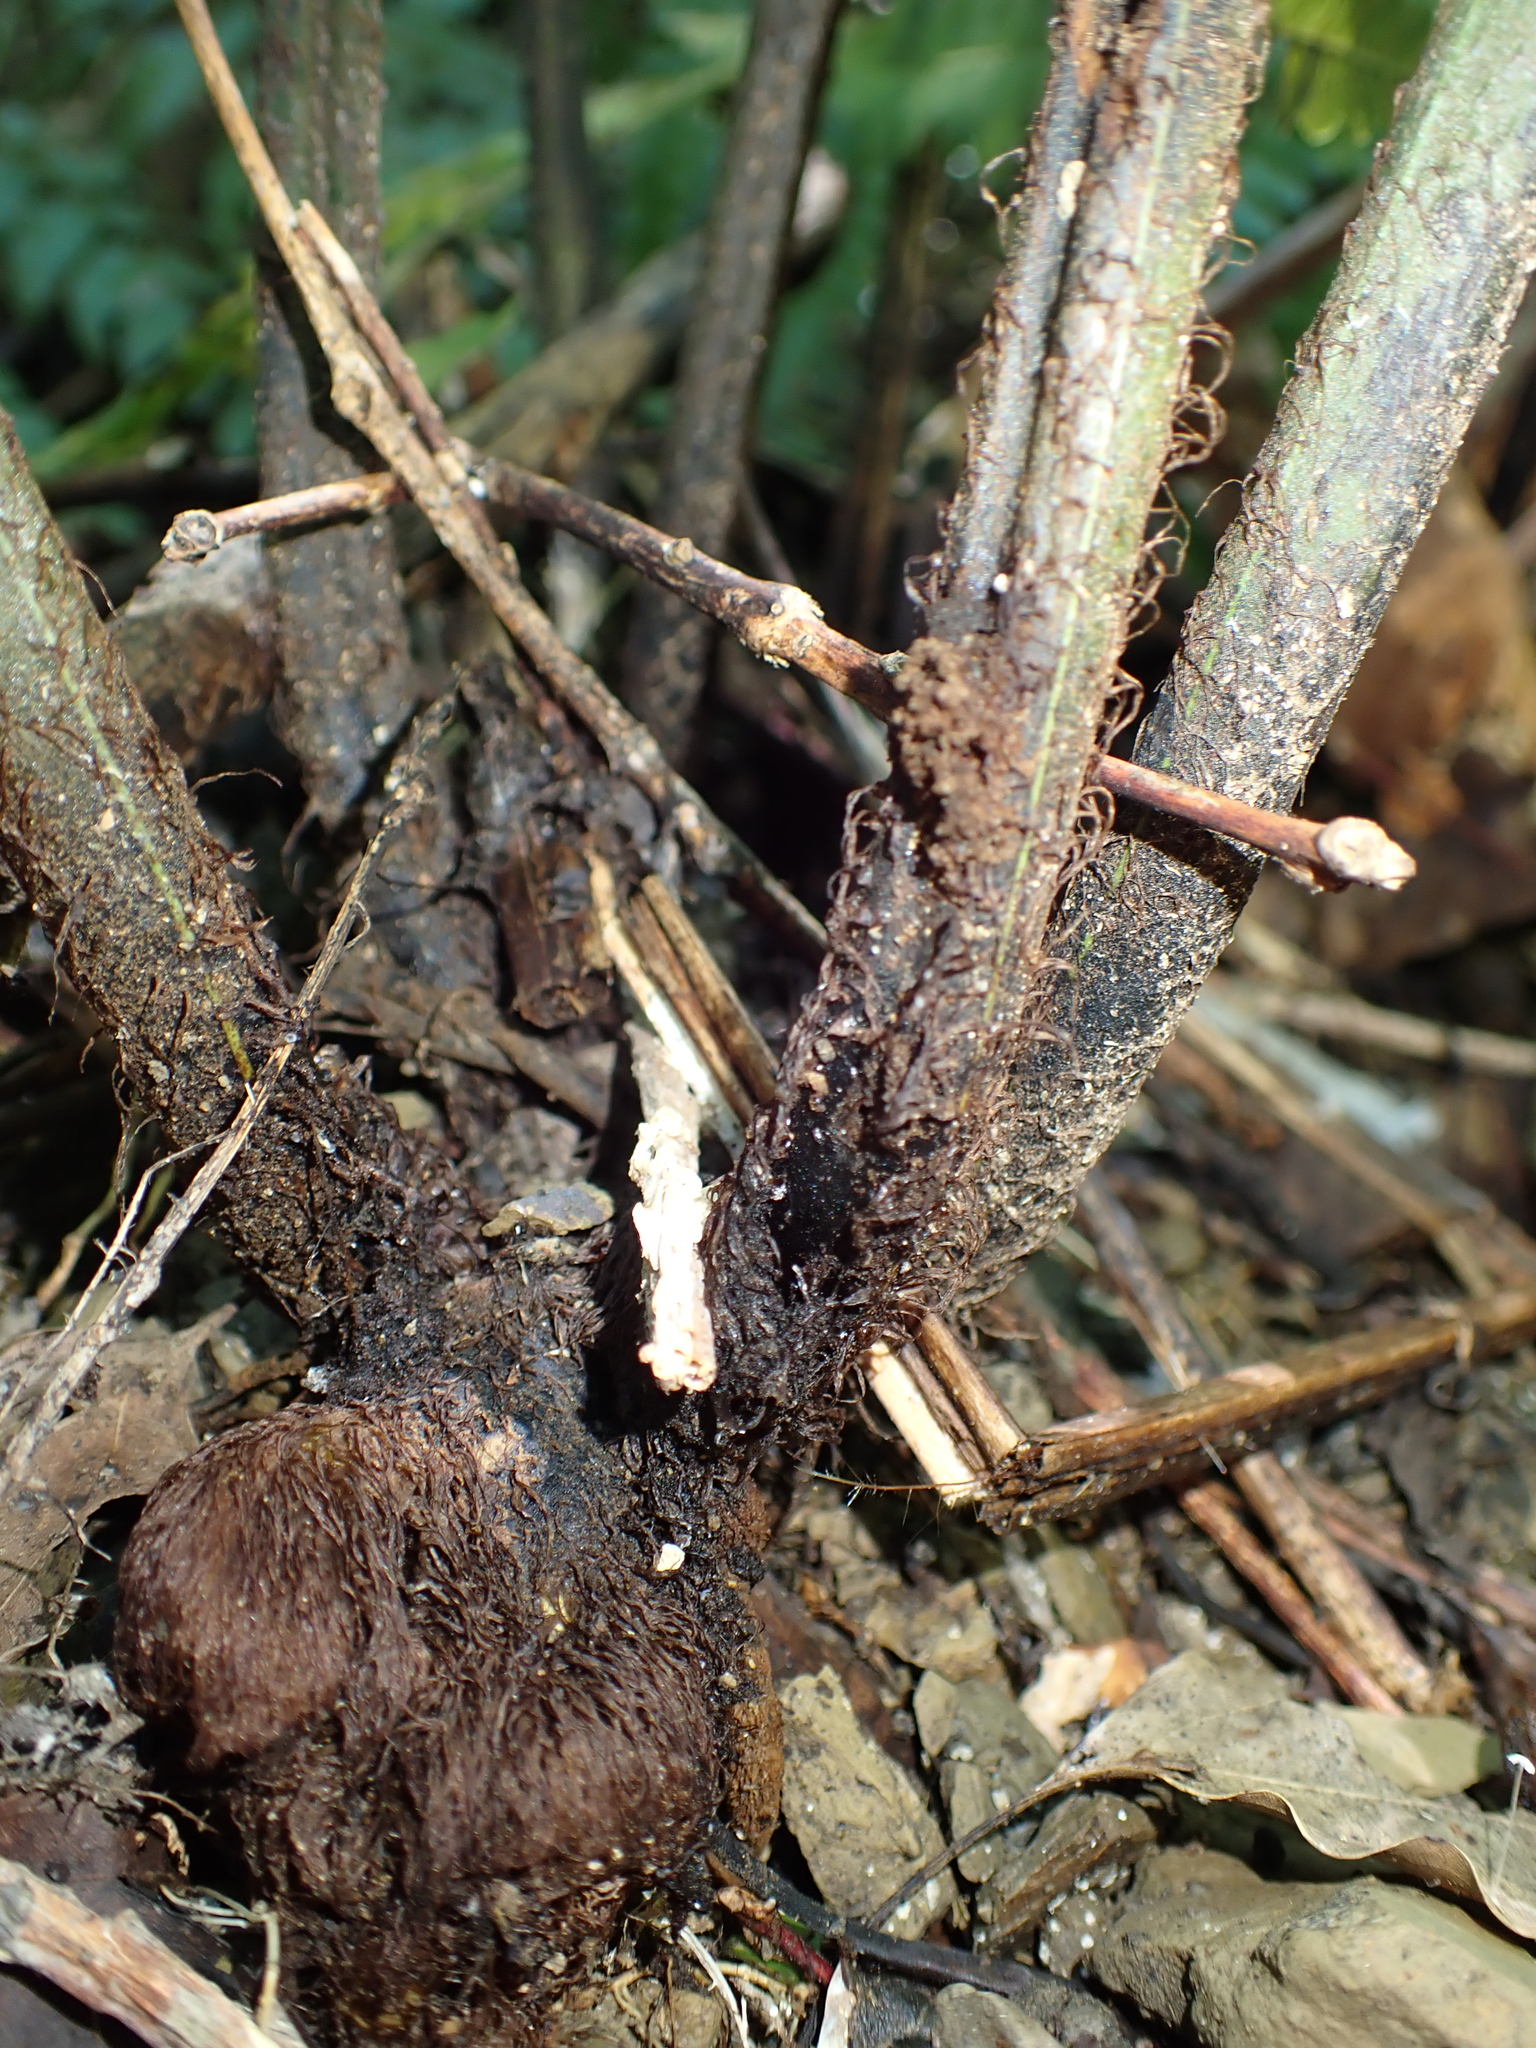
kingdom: Plantae
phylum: Tracheophyta
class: Polypodiopsida
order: Polypodiales
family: Athyriaceae
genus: Diplazium
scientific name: Diplazium dilatatum
